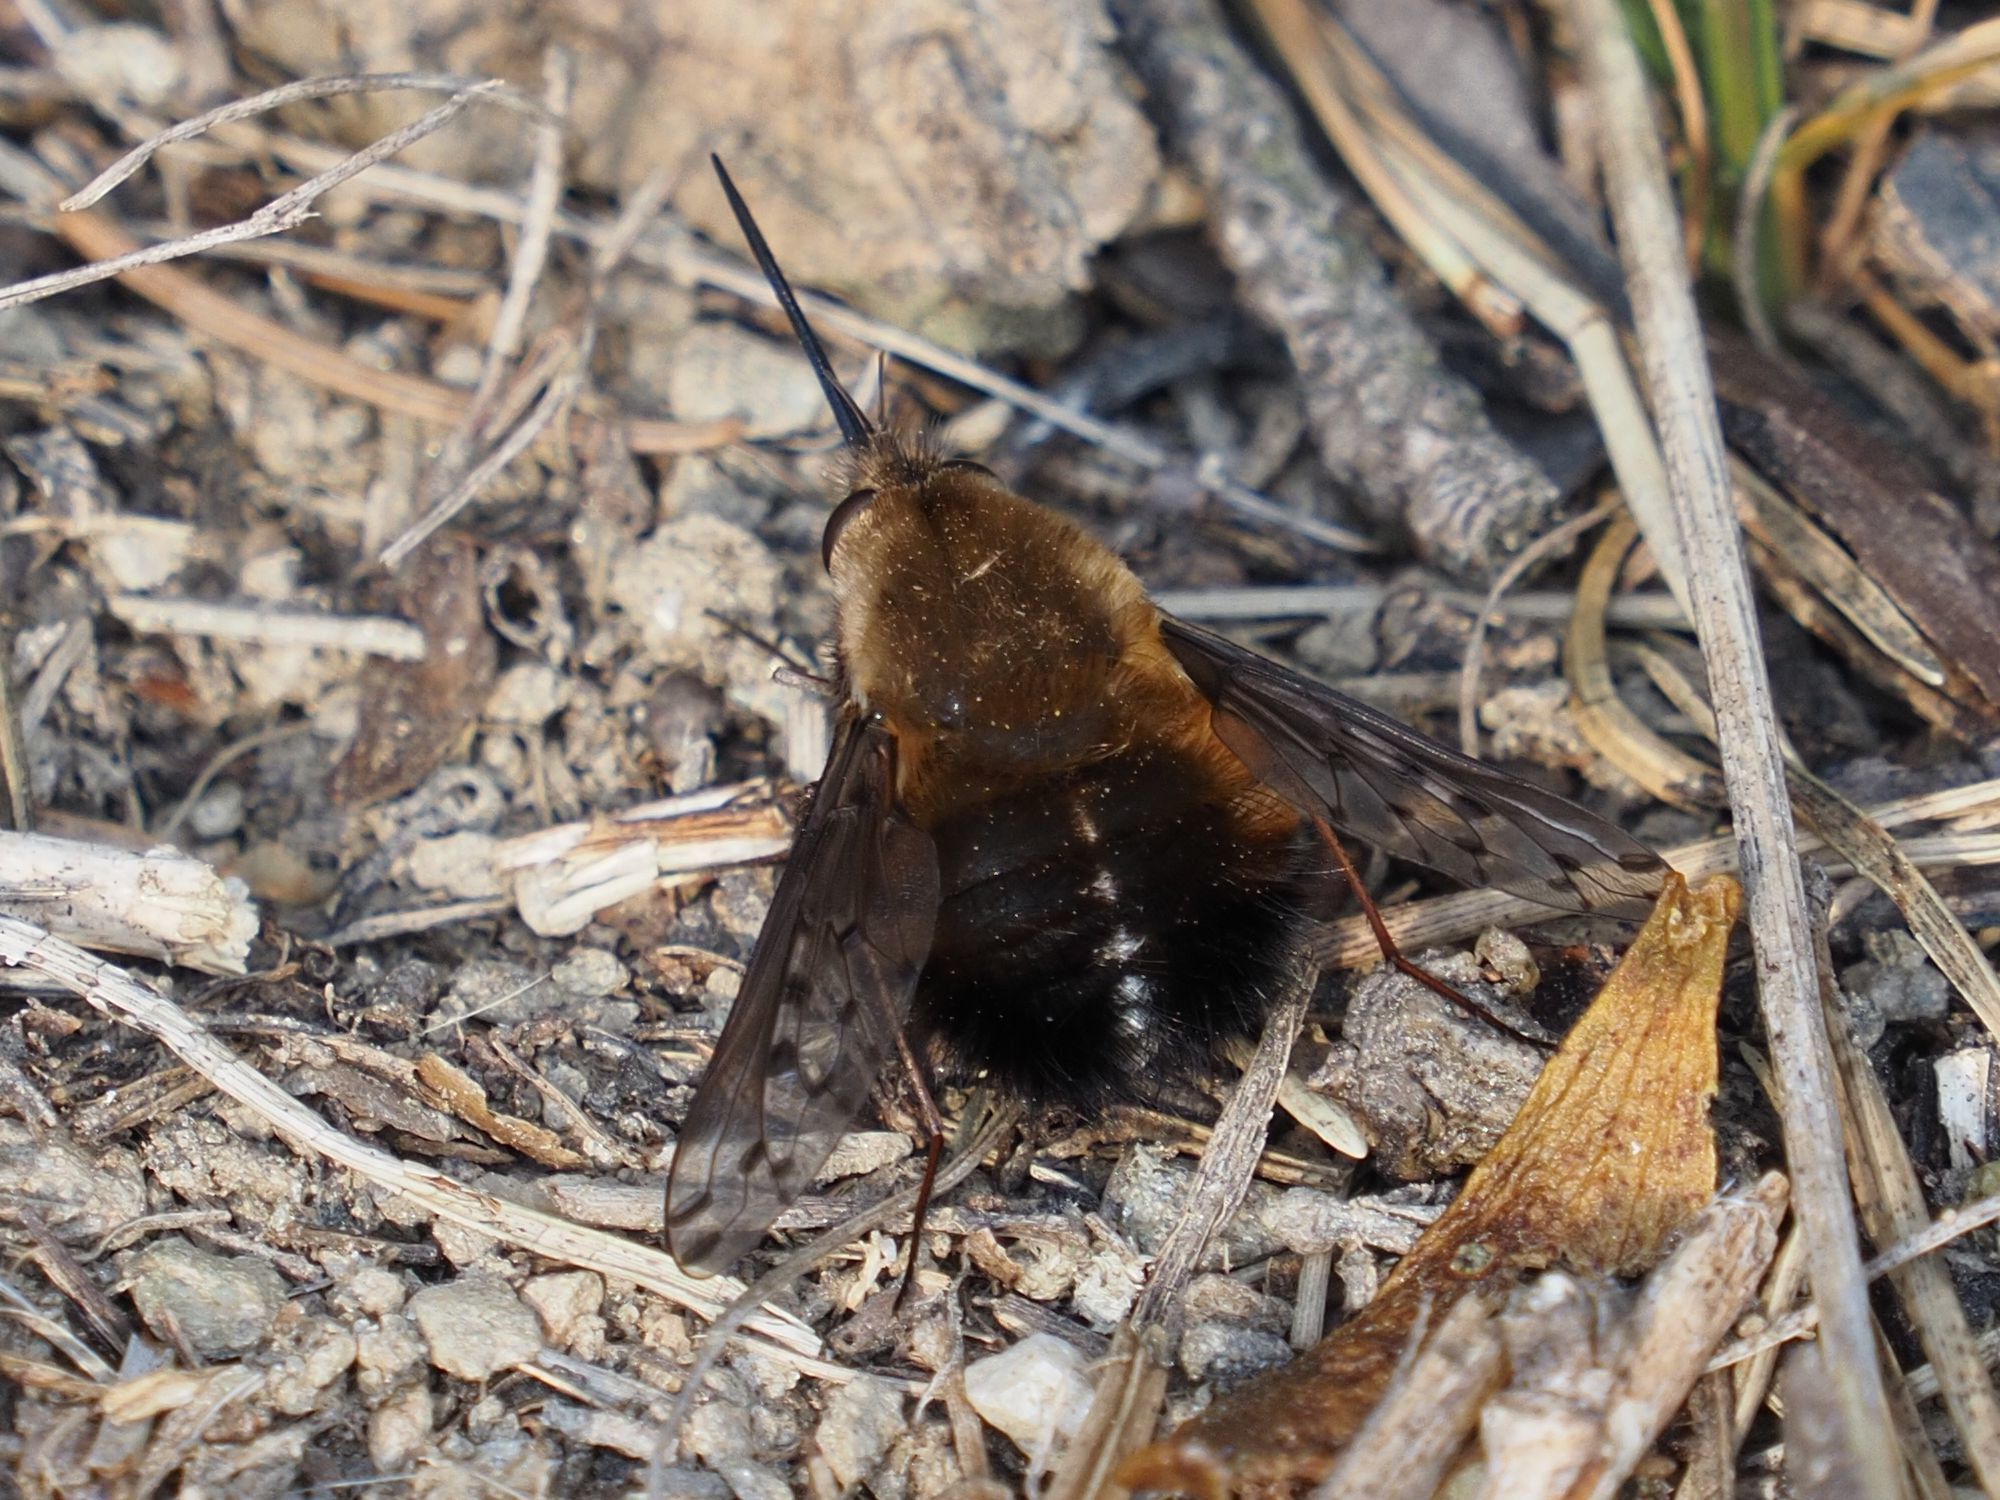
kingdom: Animalia
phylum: Arthropoda
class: Insecta
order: Diptera
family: Bombyliidae
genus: Bombylius
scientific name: Bombylius discolor
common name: Dotted bee-fly
